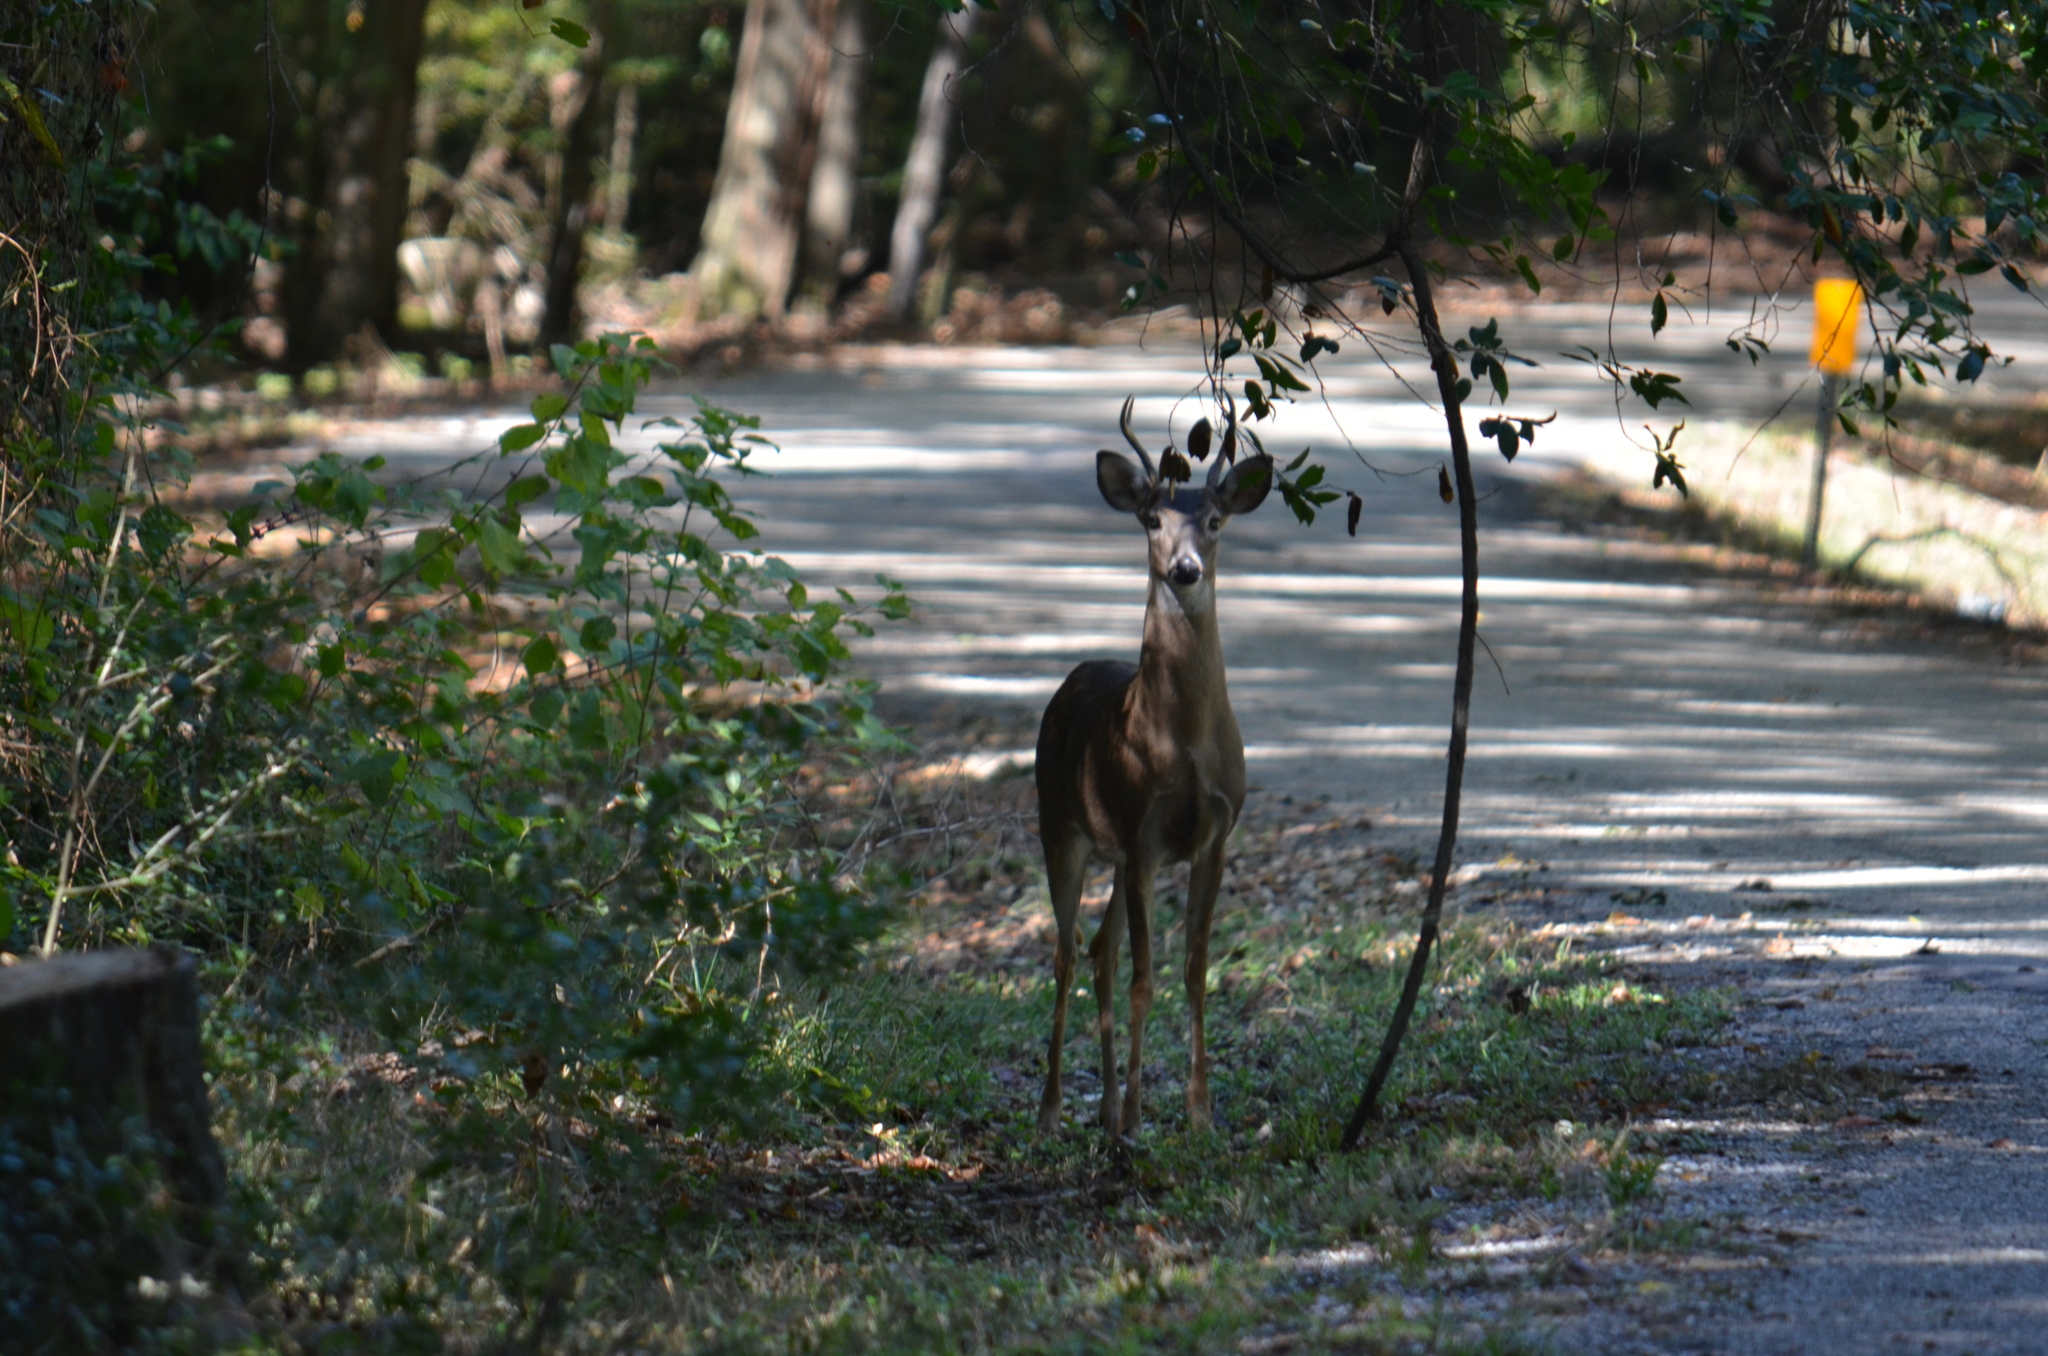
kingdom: Animalia
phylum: Chordata
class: Mammalia
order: Artiodactyla
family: Cervidae
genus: Odocoileus
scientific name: Odocoileus virginianus
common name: White-tailed deer
